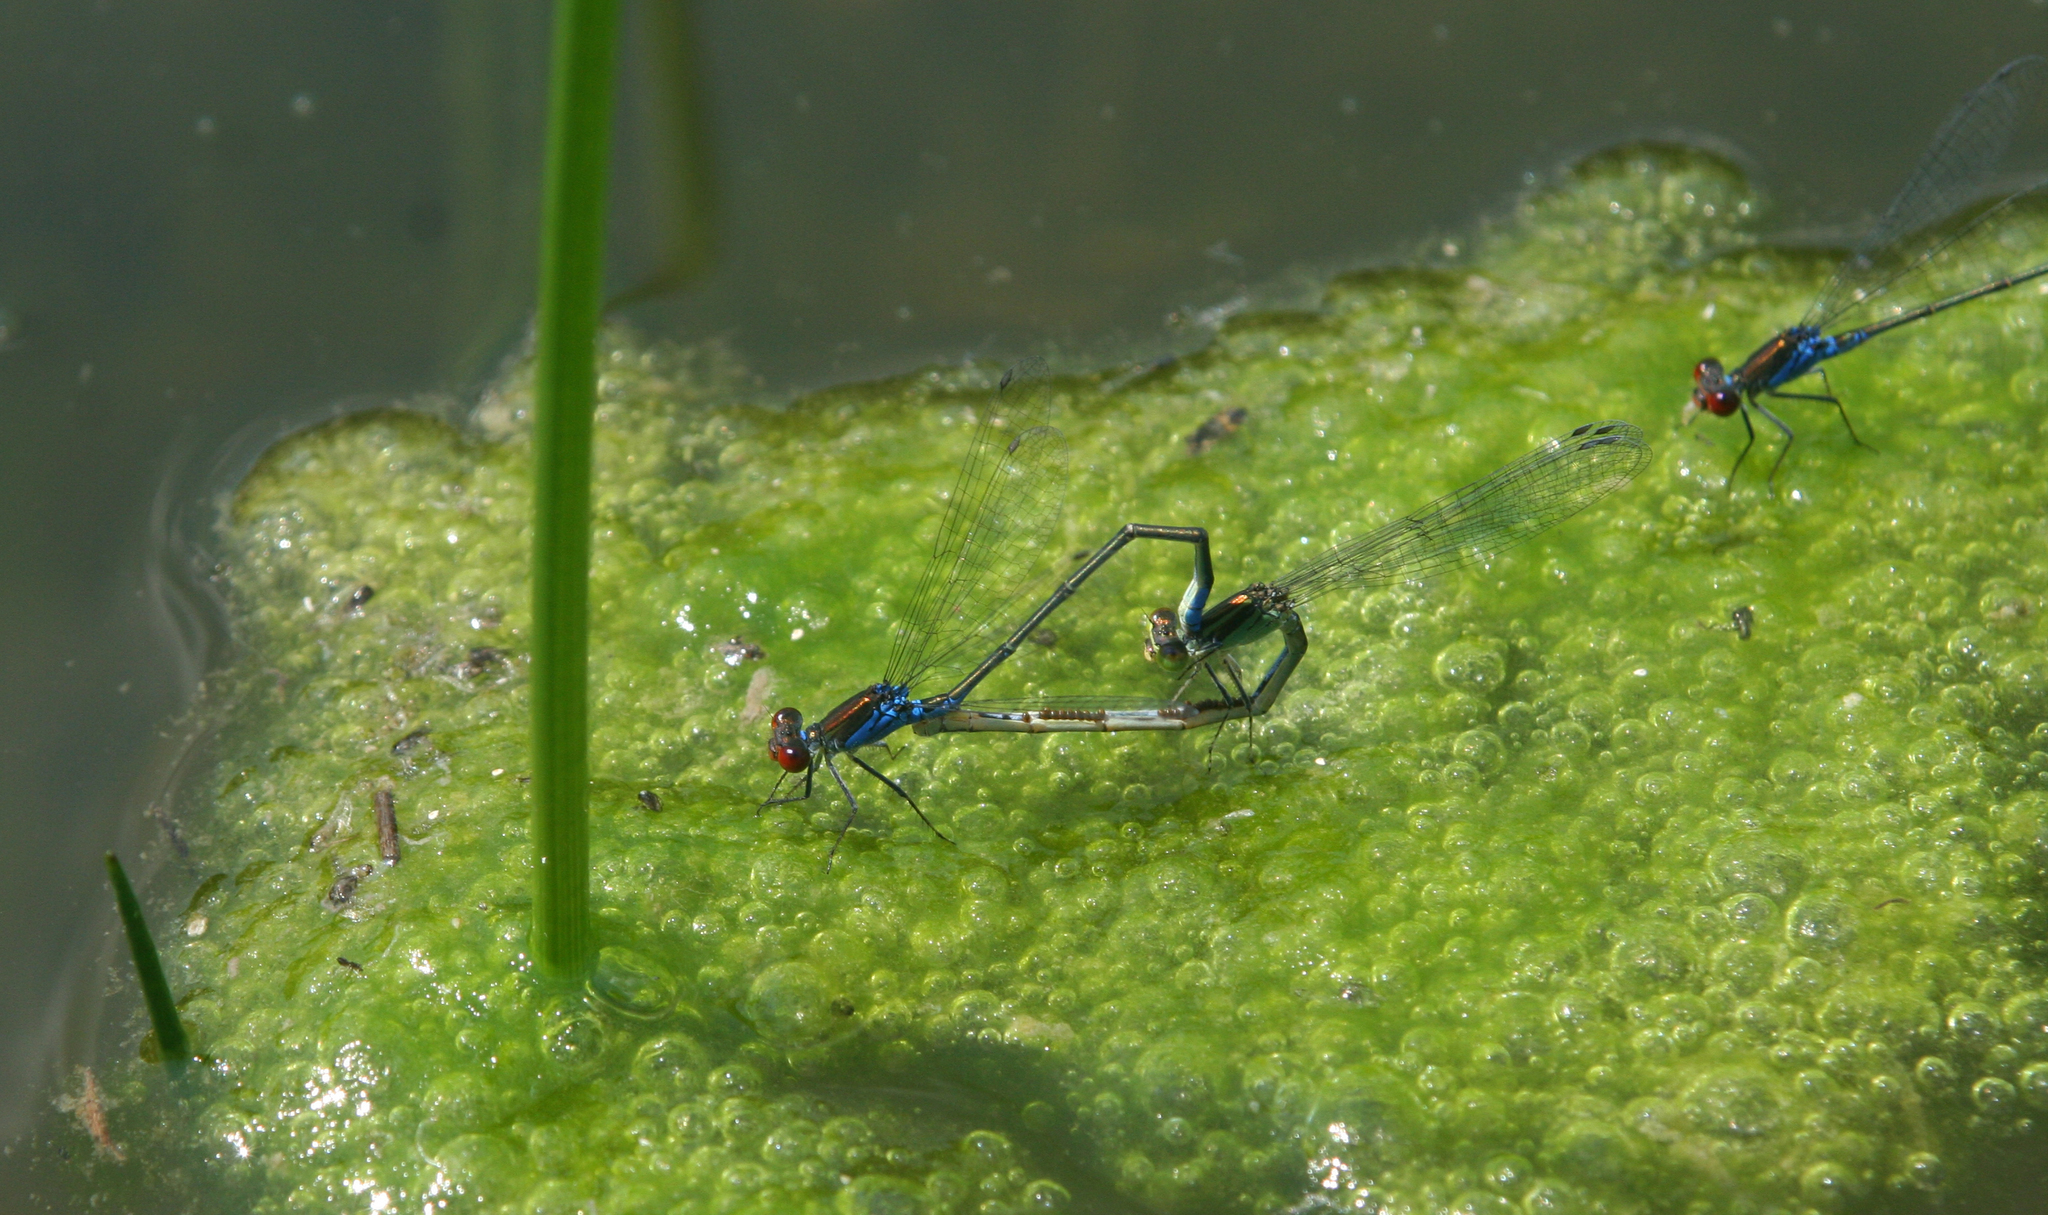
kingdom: Animalia
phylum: Arthropoda
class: Insecta
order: Odonata
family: Coenagrionidae
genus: Erythromma
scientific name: Erythromma viridulum
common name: Small red-eyed damselfly
